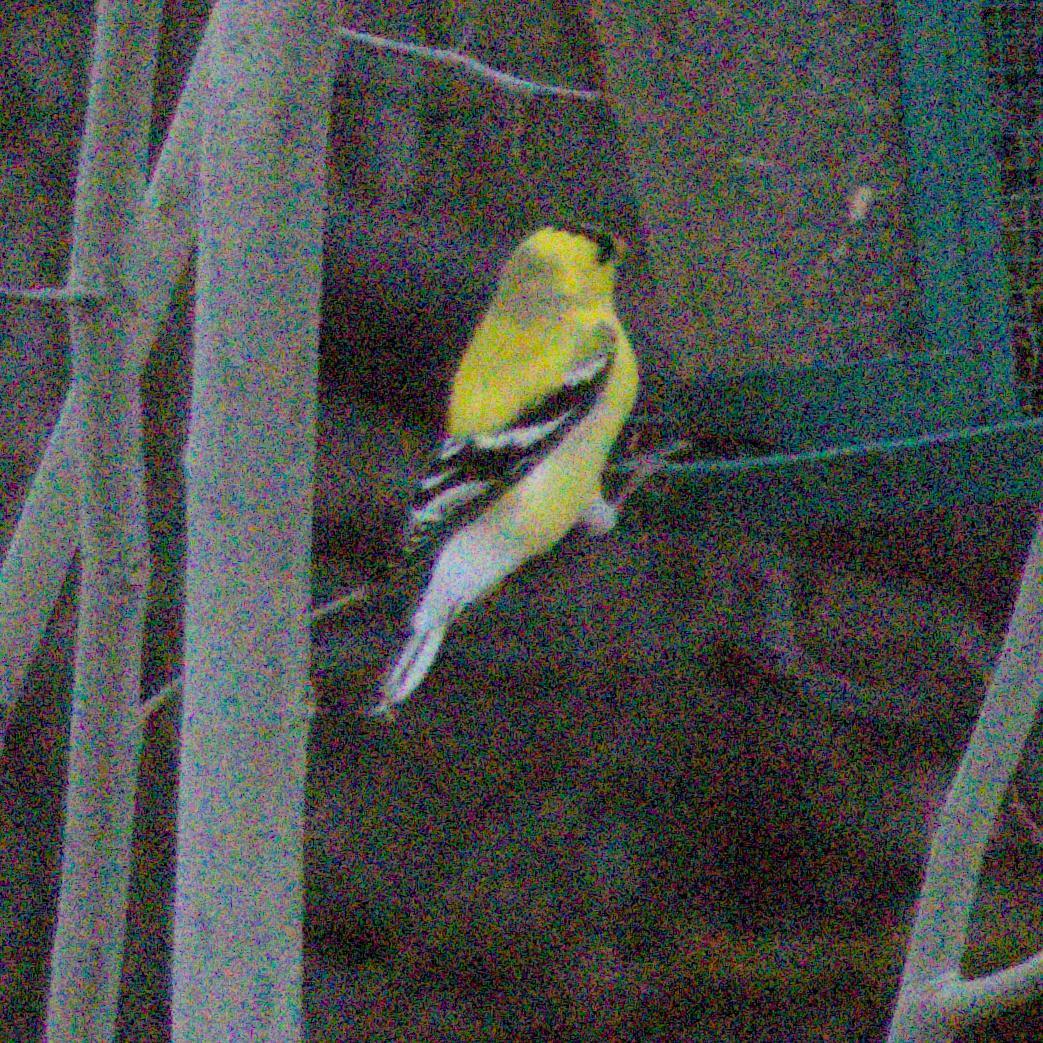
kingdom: Animalia
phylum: Chordata
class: Aves
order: Passeriformes
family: Fringillidae
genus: Spinus
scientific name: Spinus tristis
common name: American goldfinch
